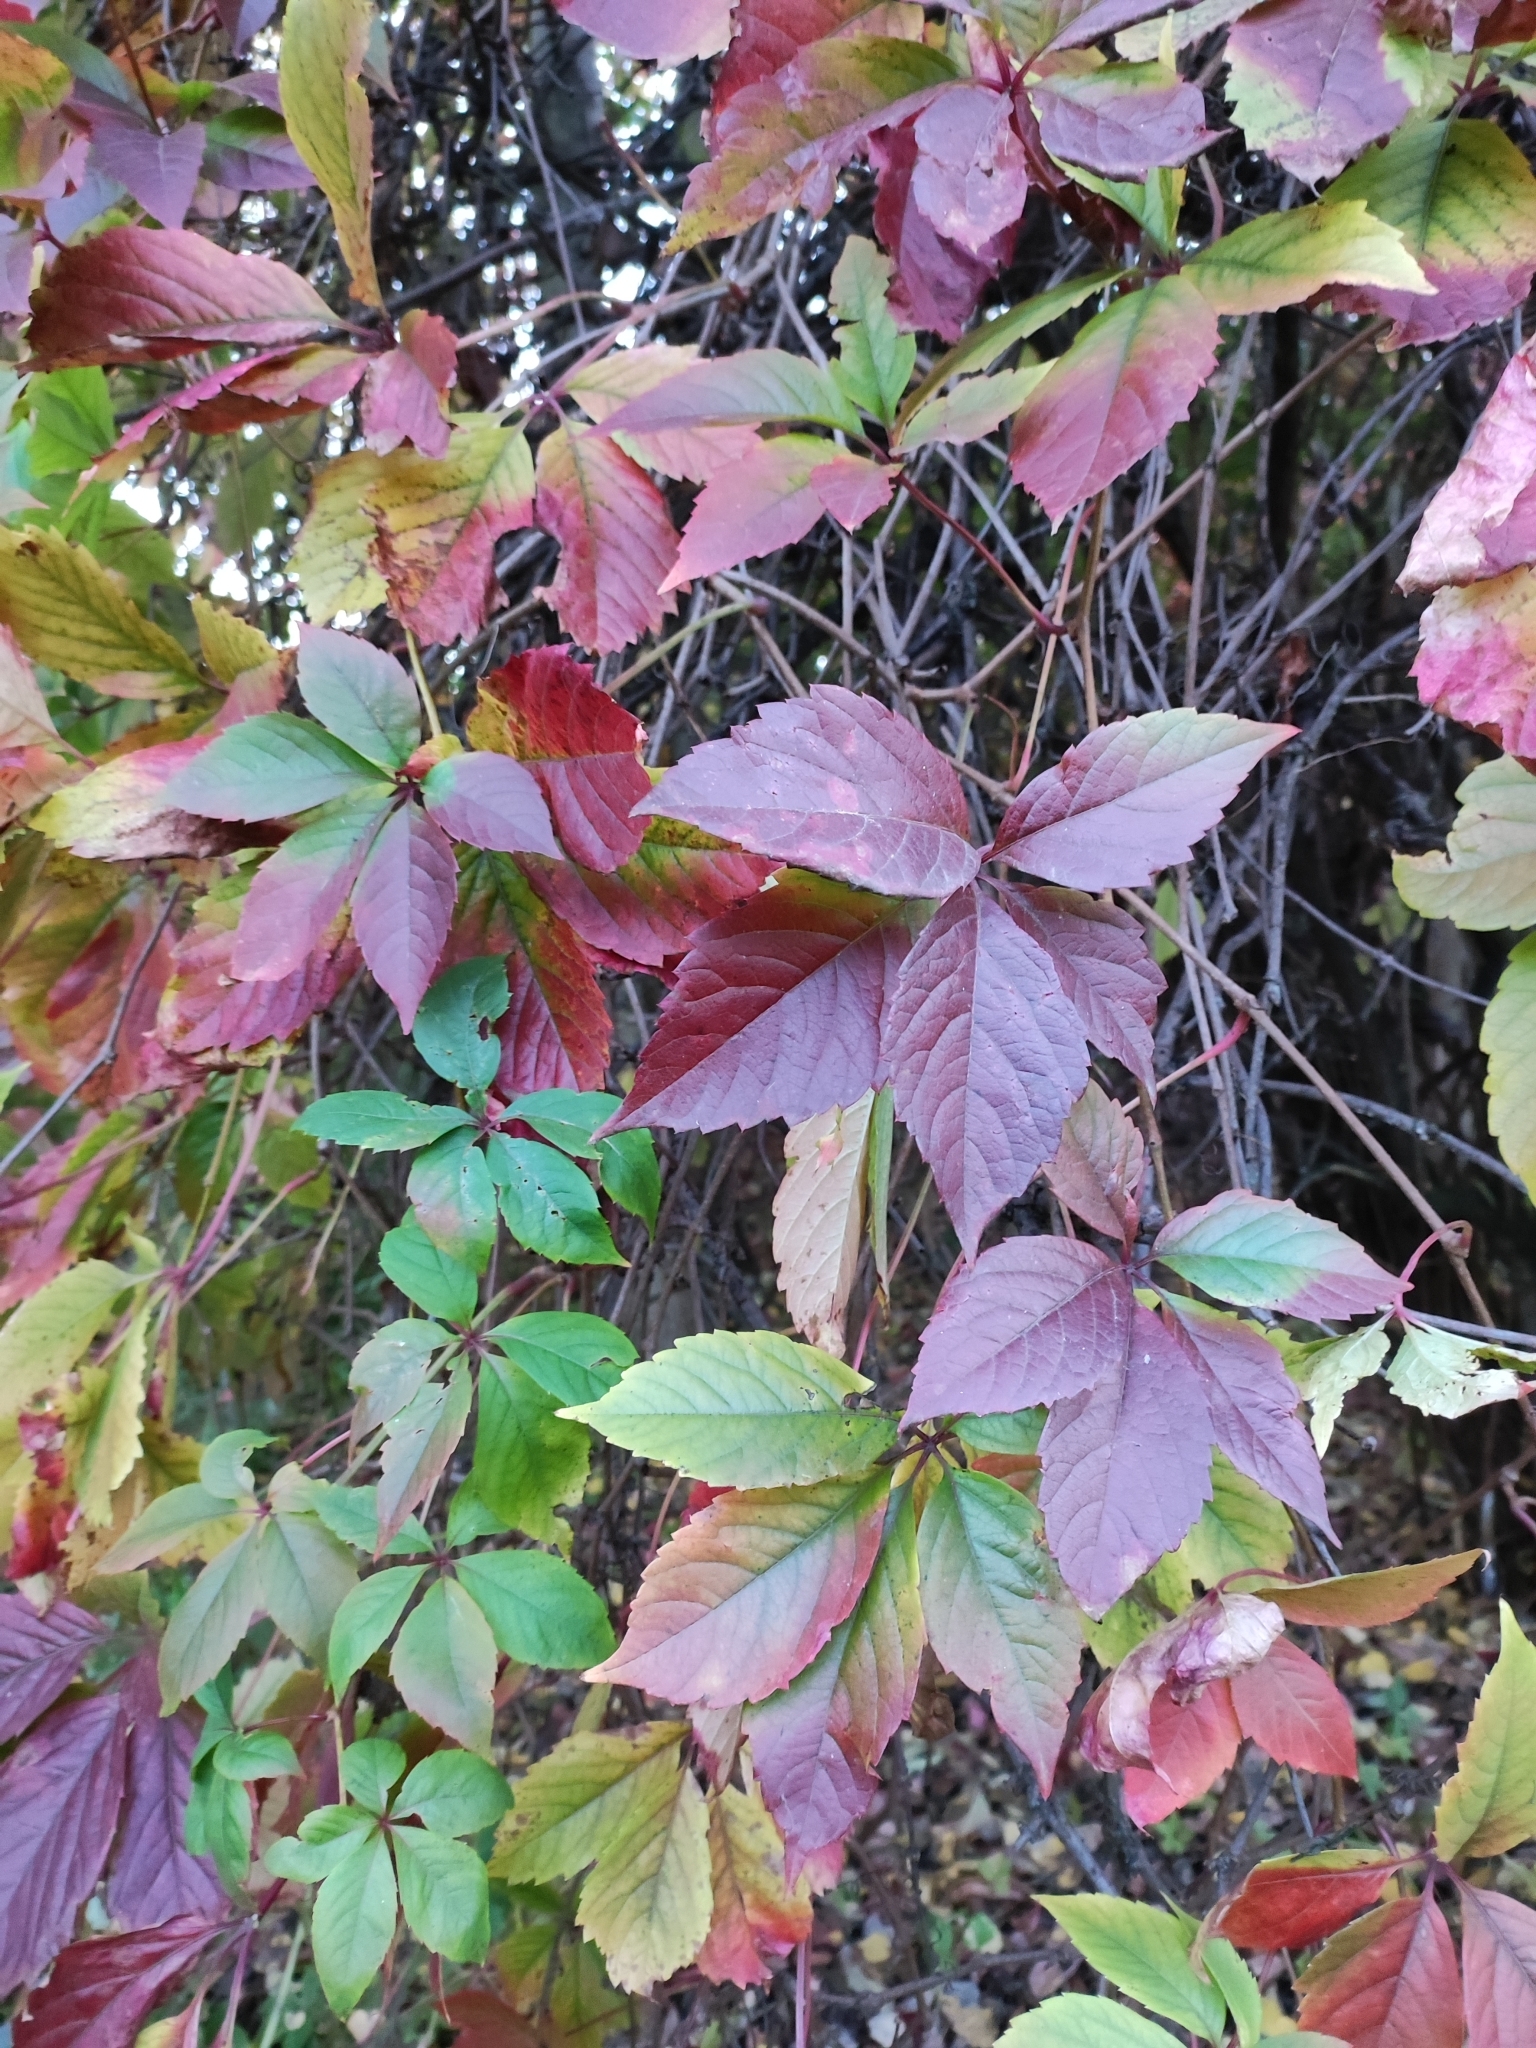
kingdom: Plantae
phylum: Tracheophyta
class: Magnoliopsida
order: Vitales
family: Vitaceae
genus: Parthenocissus
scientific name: Parthenocissus inserta
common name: False virginia-creeper
